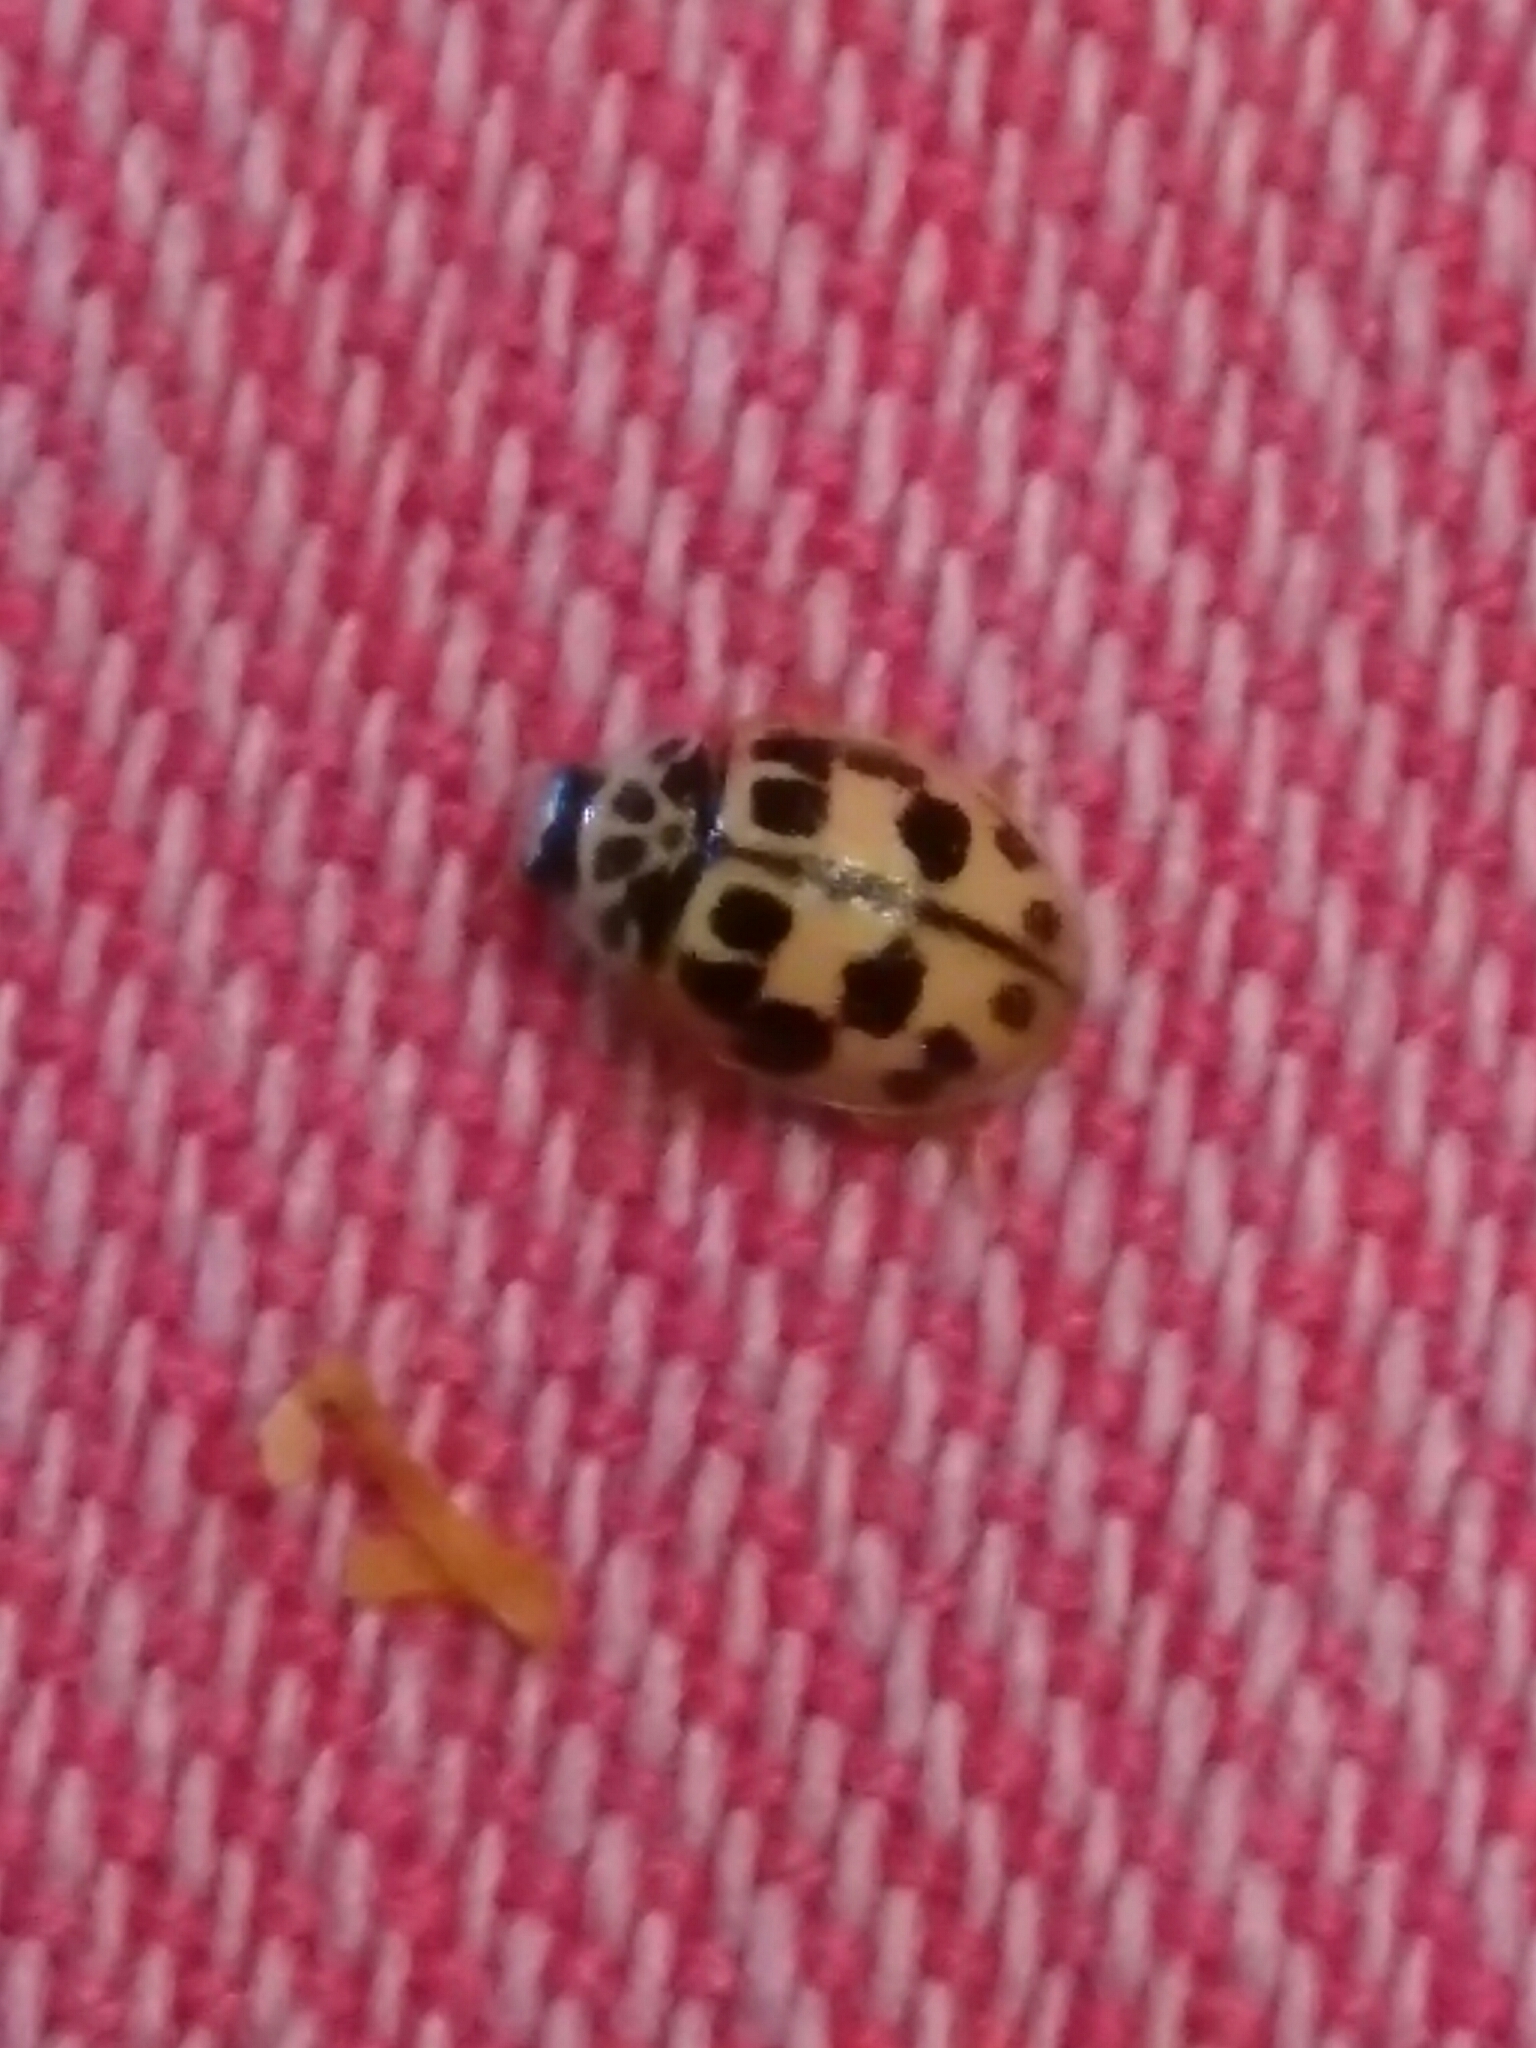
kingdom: Animalia
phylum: Arthropoda
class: Insecta
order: Coleoptera
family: Coccinellidae
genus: Oenopia
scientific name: Oenopia conglobata
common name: Ladybird beetle
